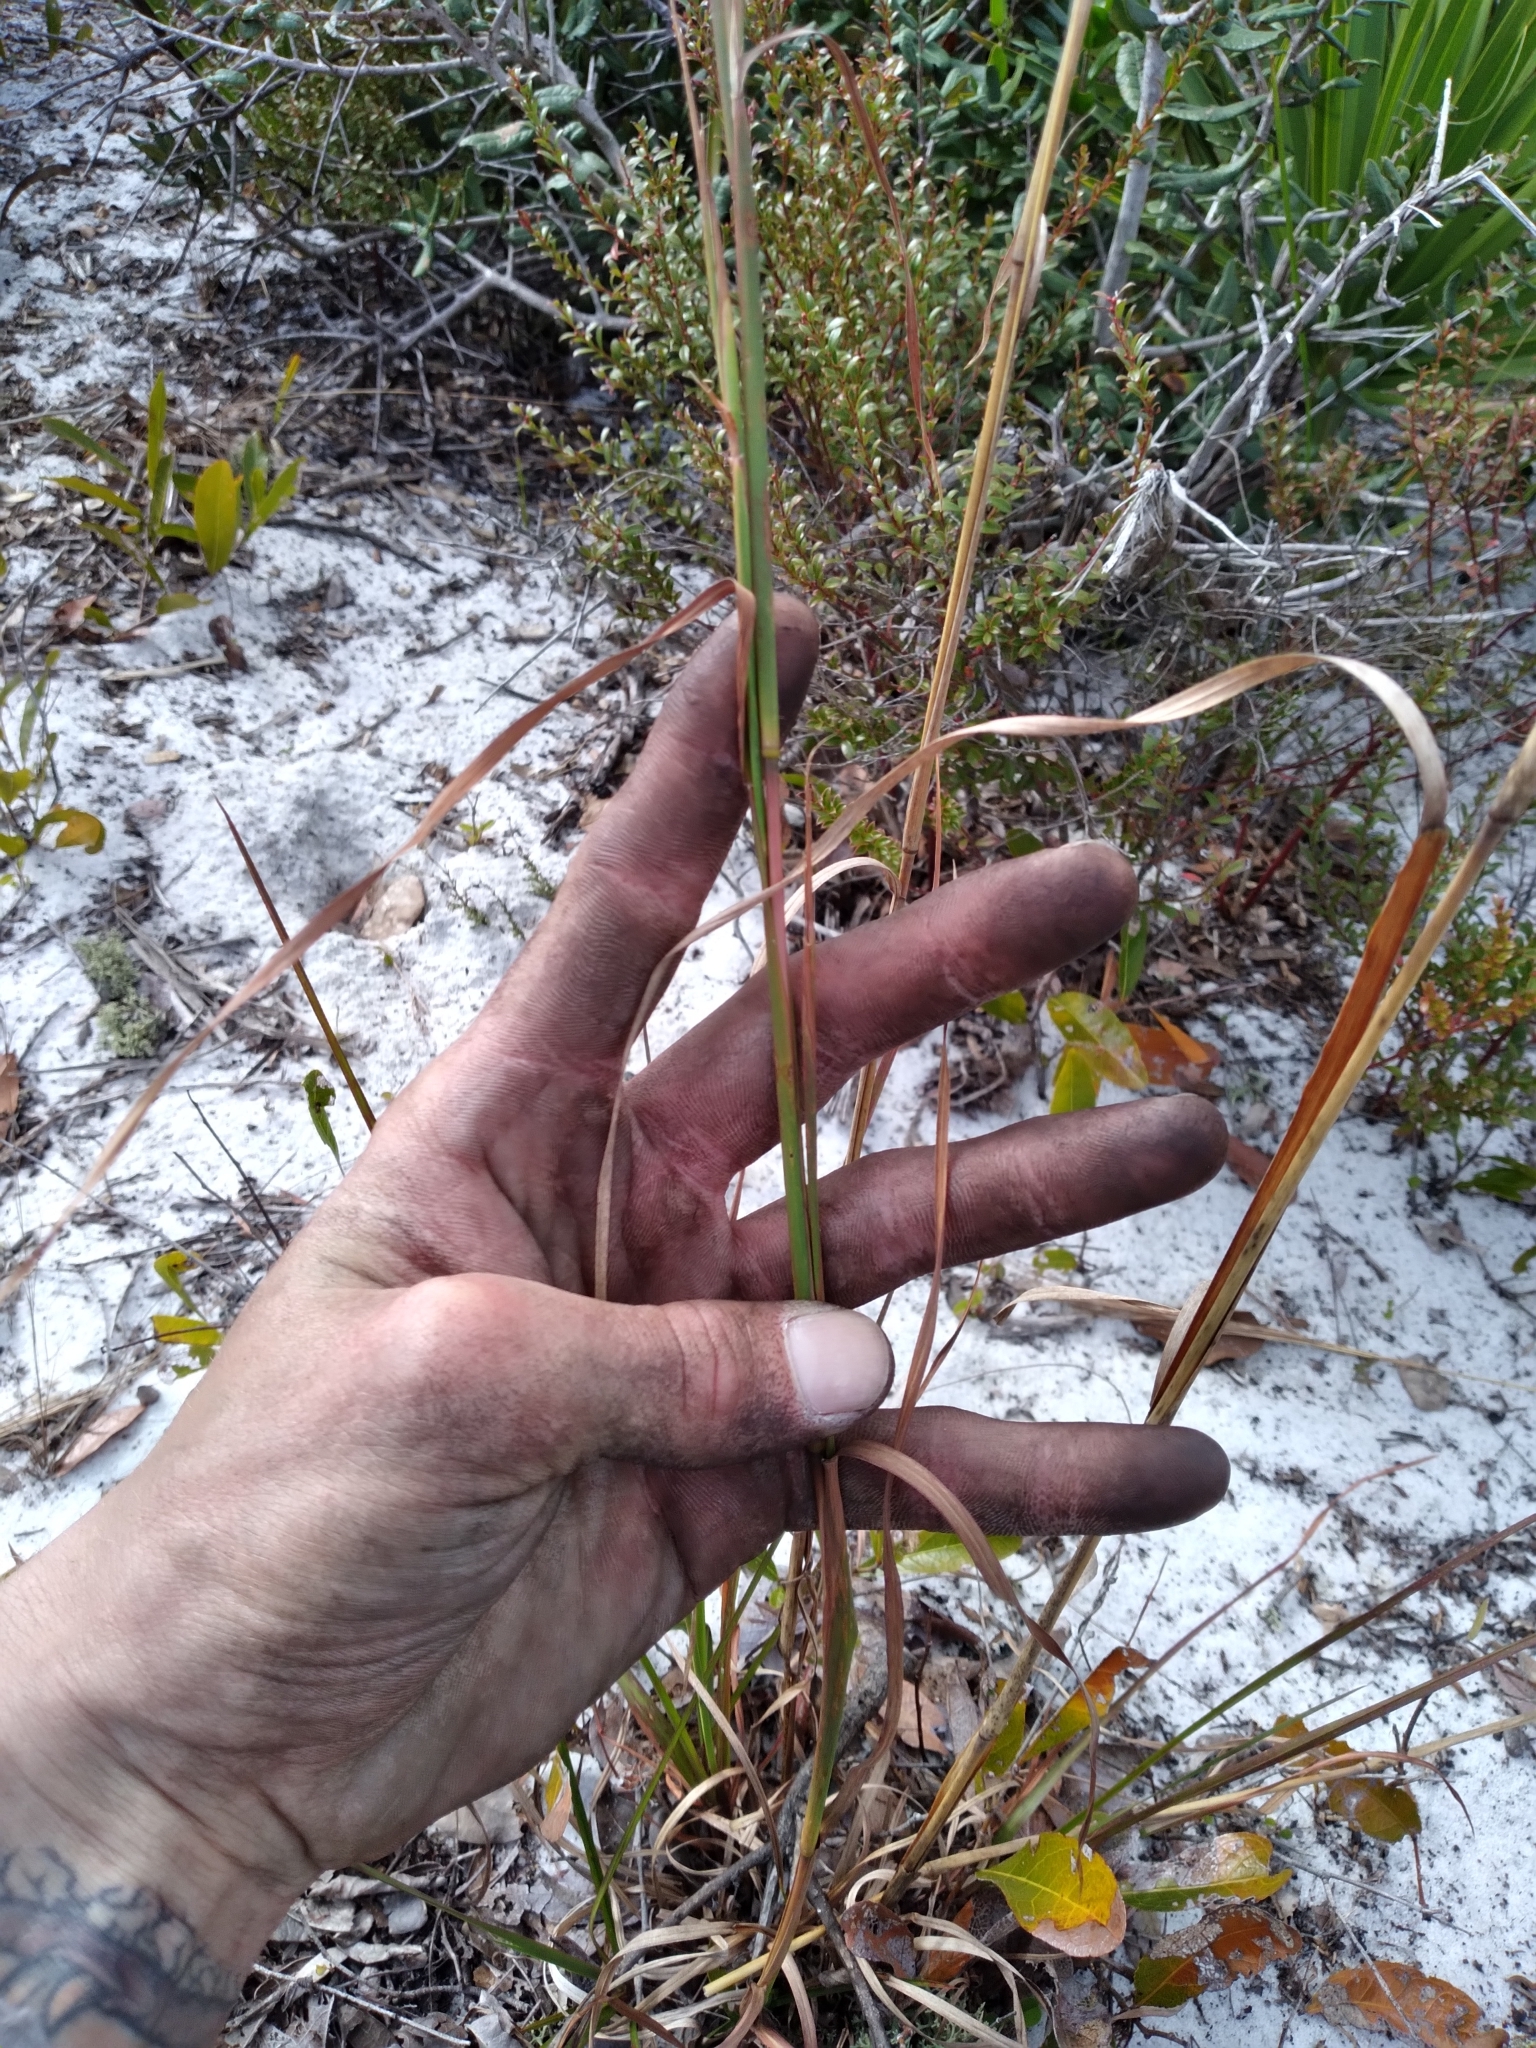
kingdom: Plantae
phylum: Tracheophyta
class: Liliopsida
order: Poales
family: Poaceae
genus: Andropogon
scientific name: Andropogon floridanus
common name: Florida bluestem
